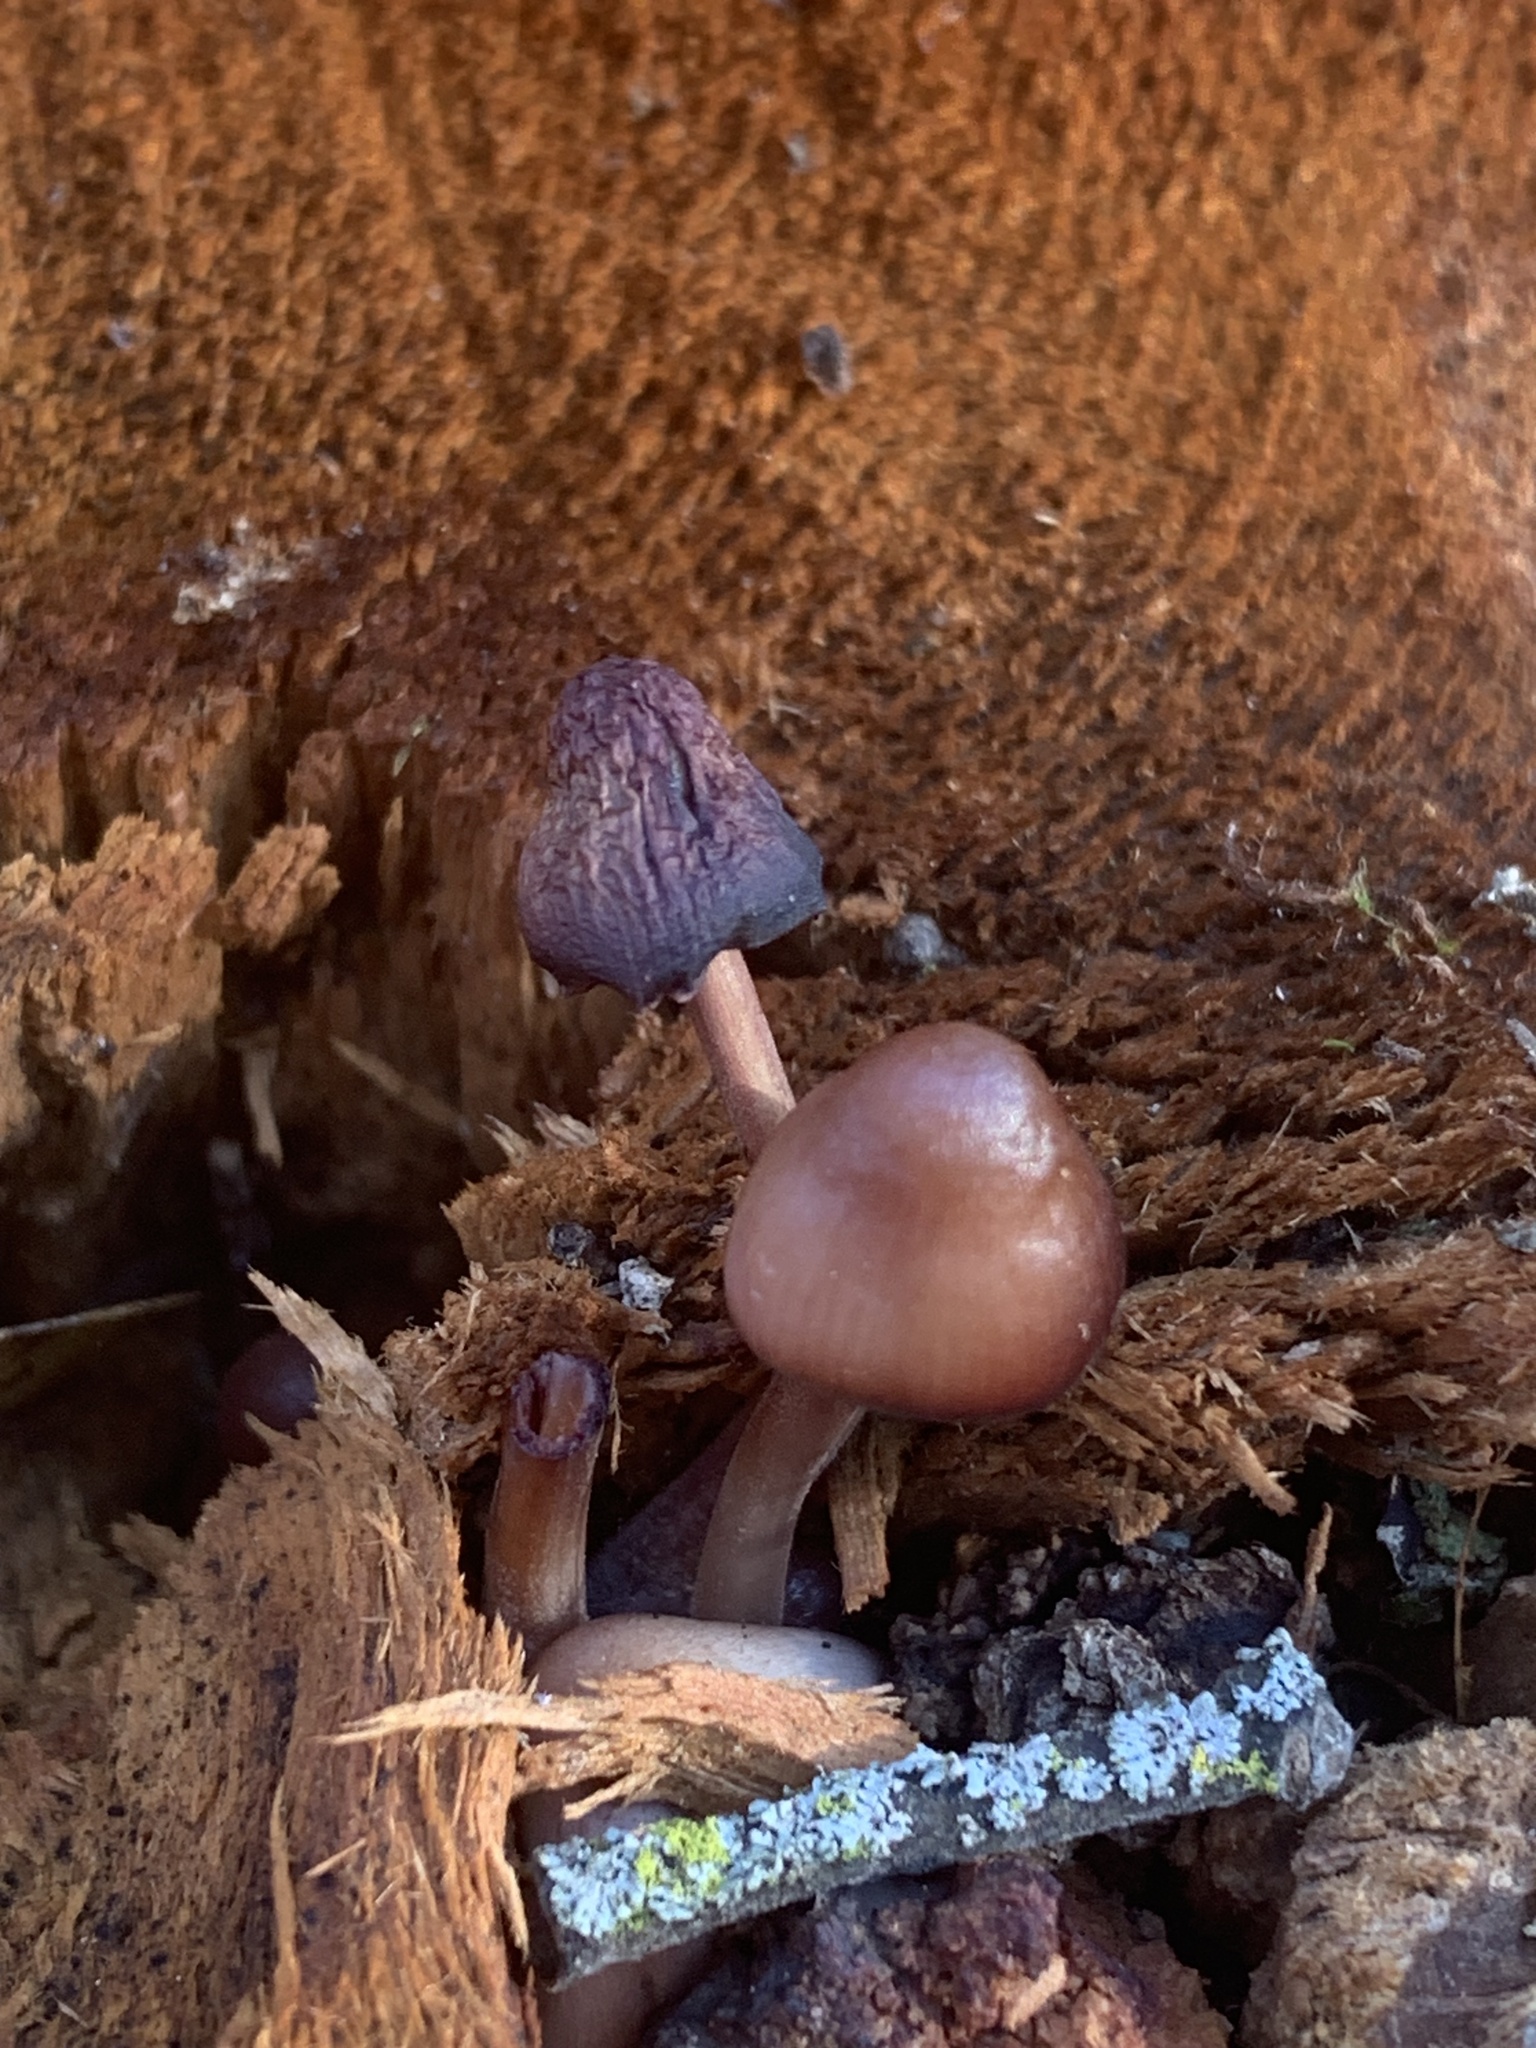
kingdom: Fungi
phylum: Basidiomycota
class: Agaricomycetes
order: Agaricales
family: Mycenaceae
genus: Mycena
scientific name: Mycena haematopus
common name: Burgundydrop bonnet
